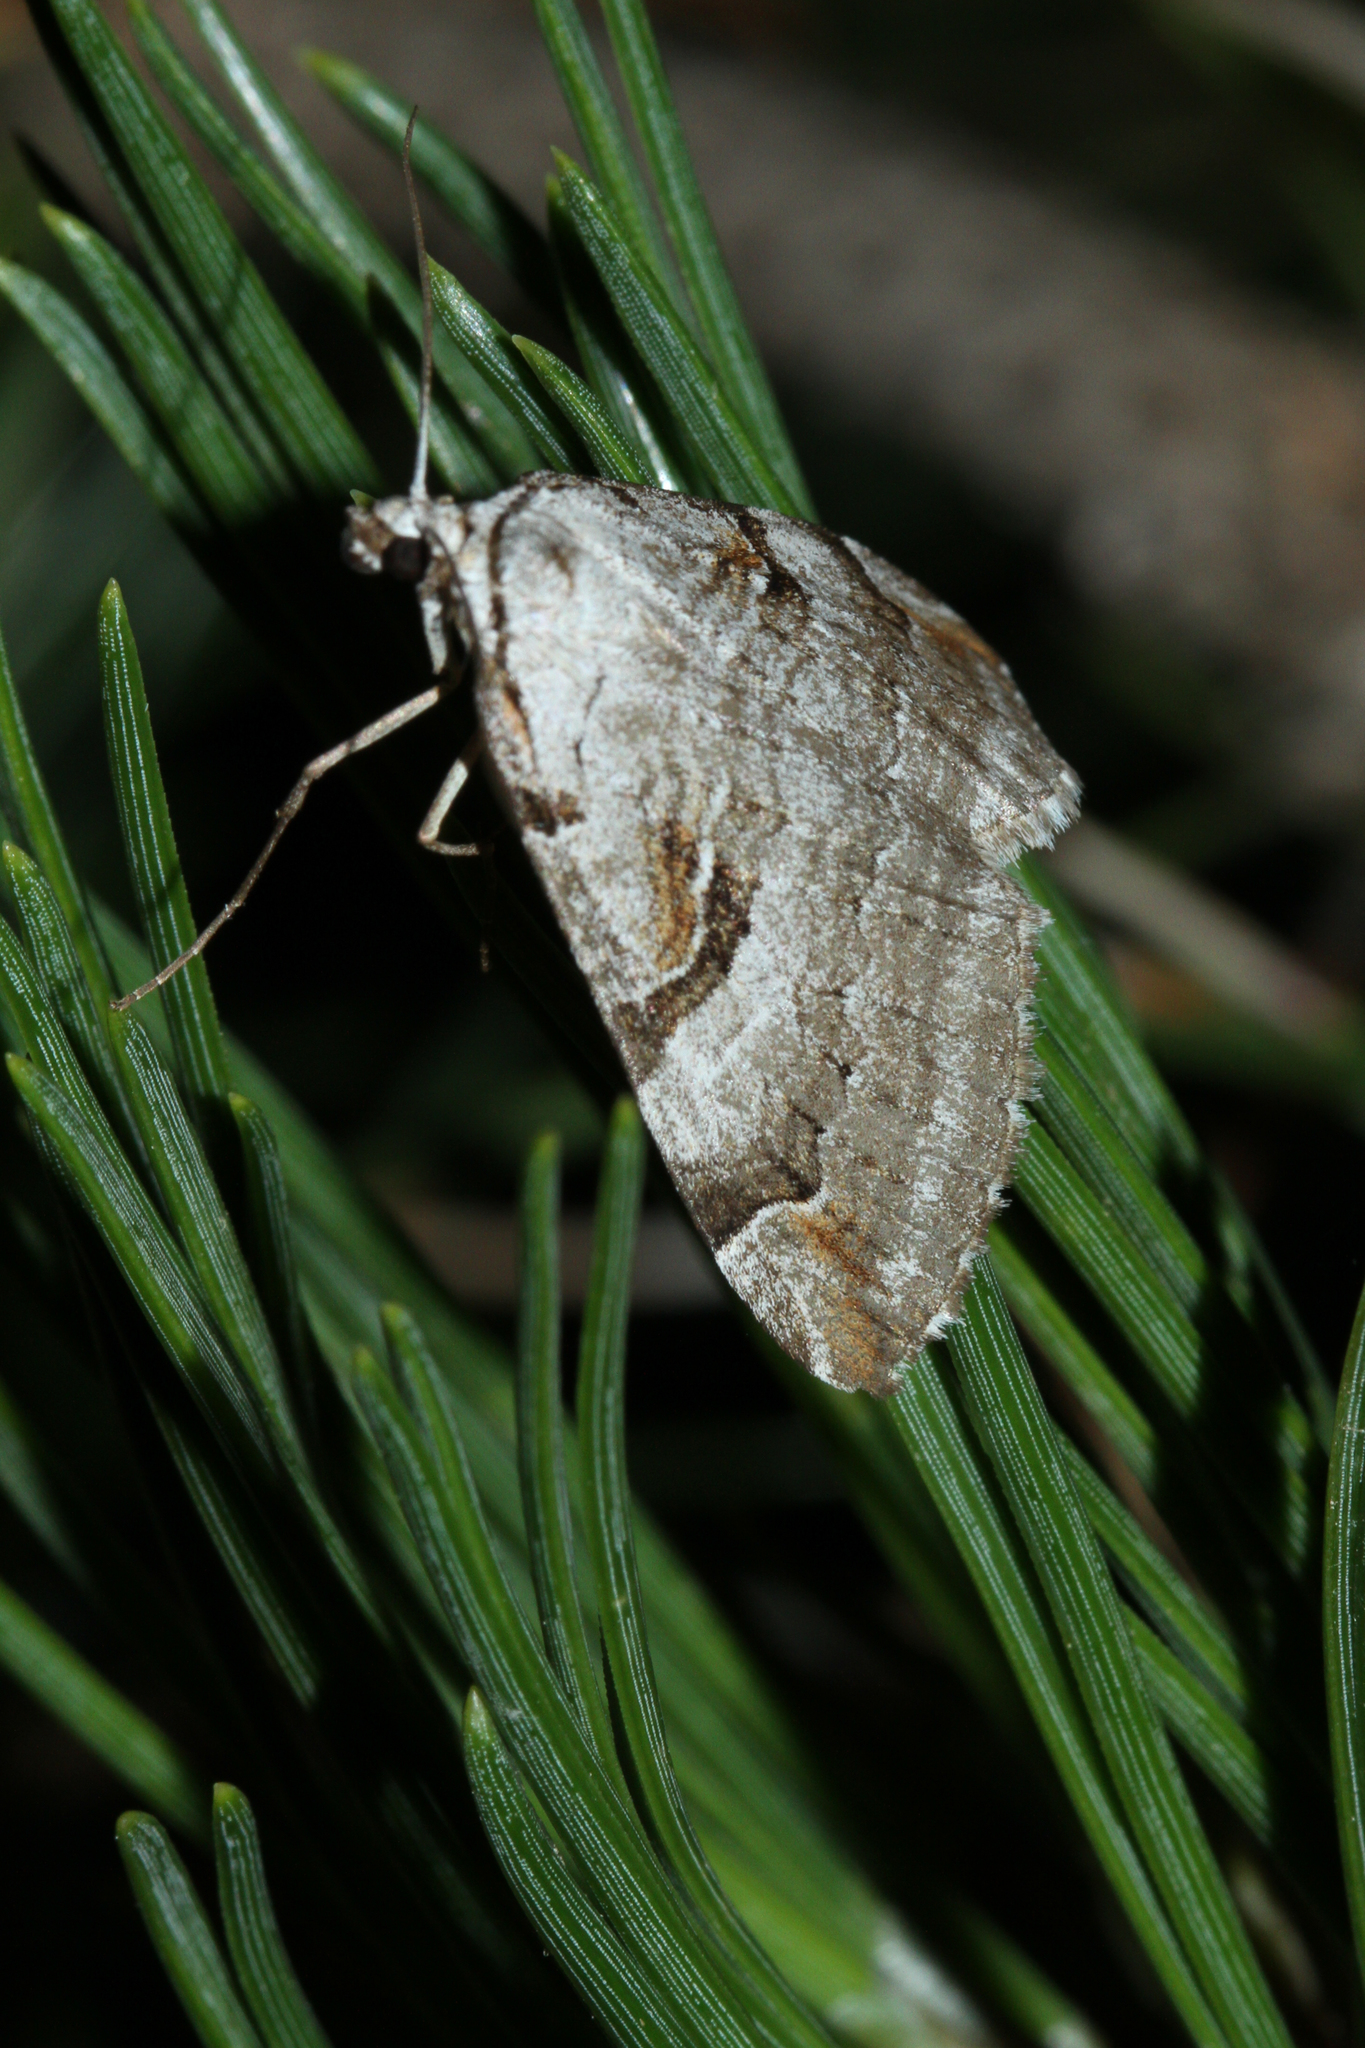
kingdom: Animalia
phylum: Arthropoda
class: Insecta
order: Lepidoptera
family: Geometridae
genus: Aplocera
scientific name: Aplocera praeformata
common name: Purple treble-bar
